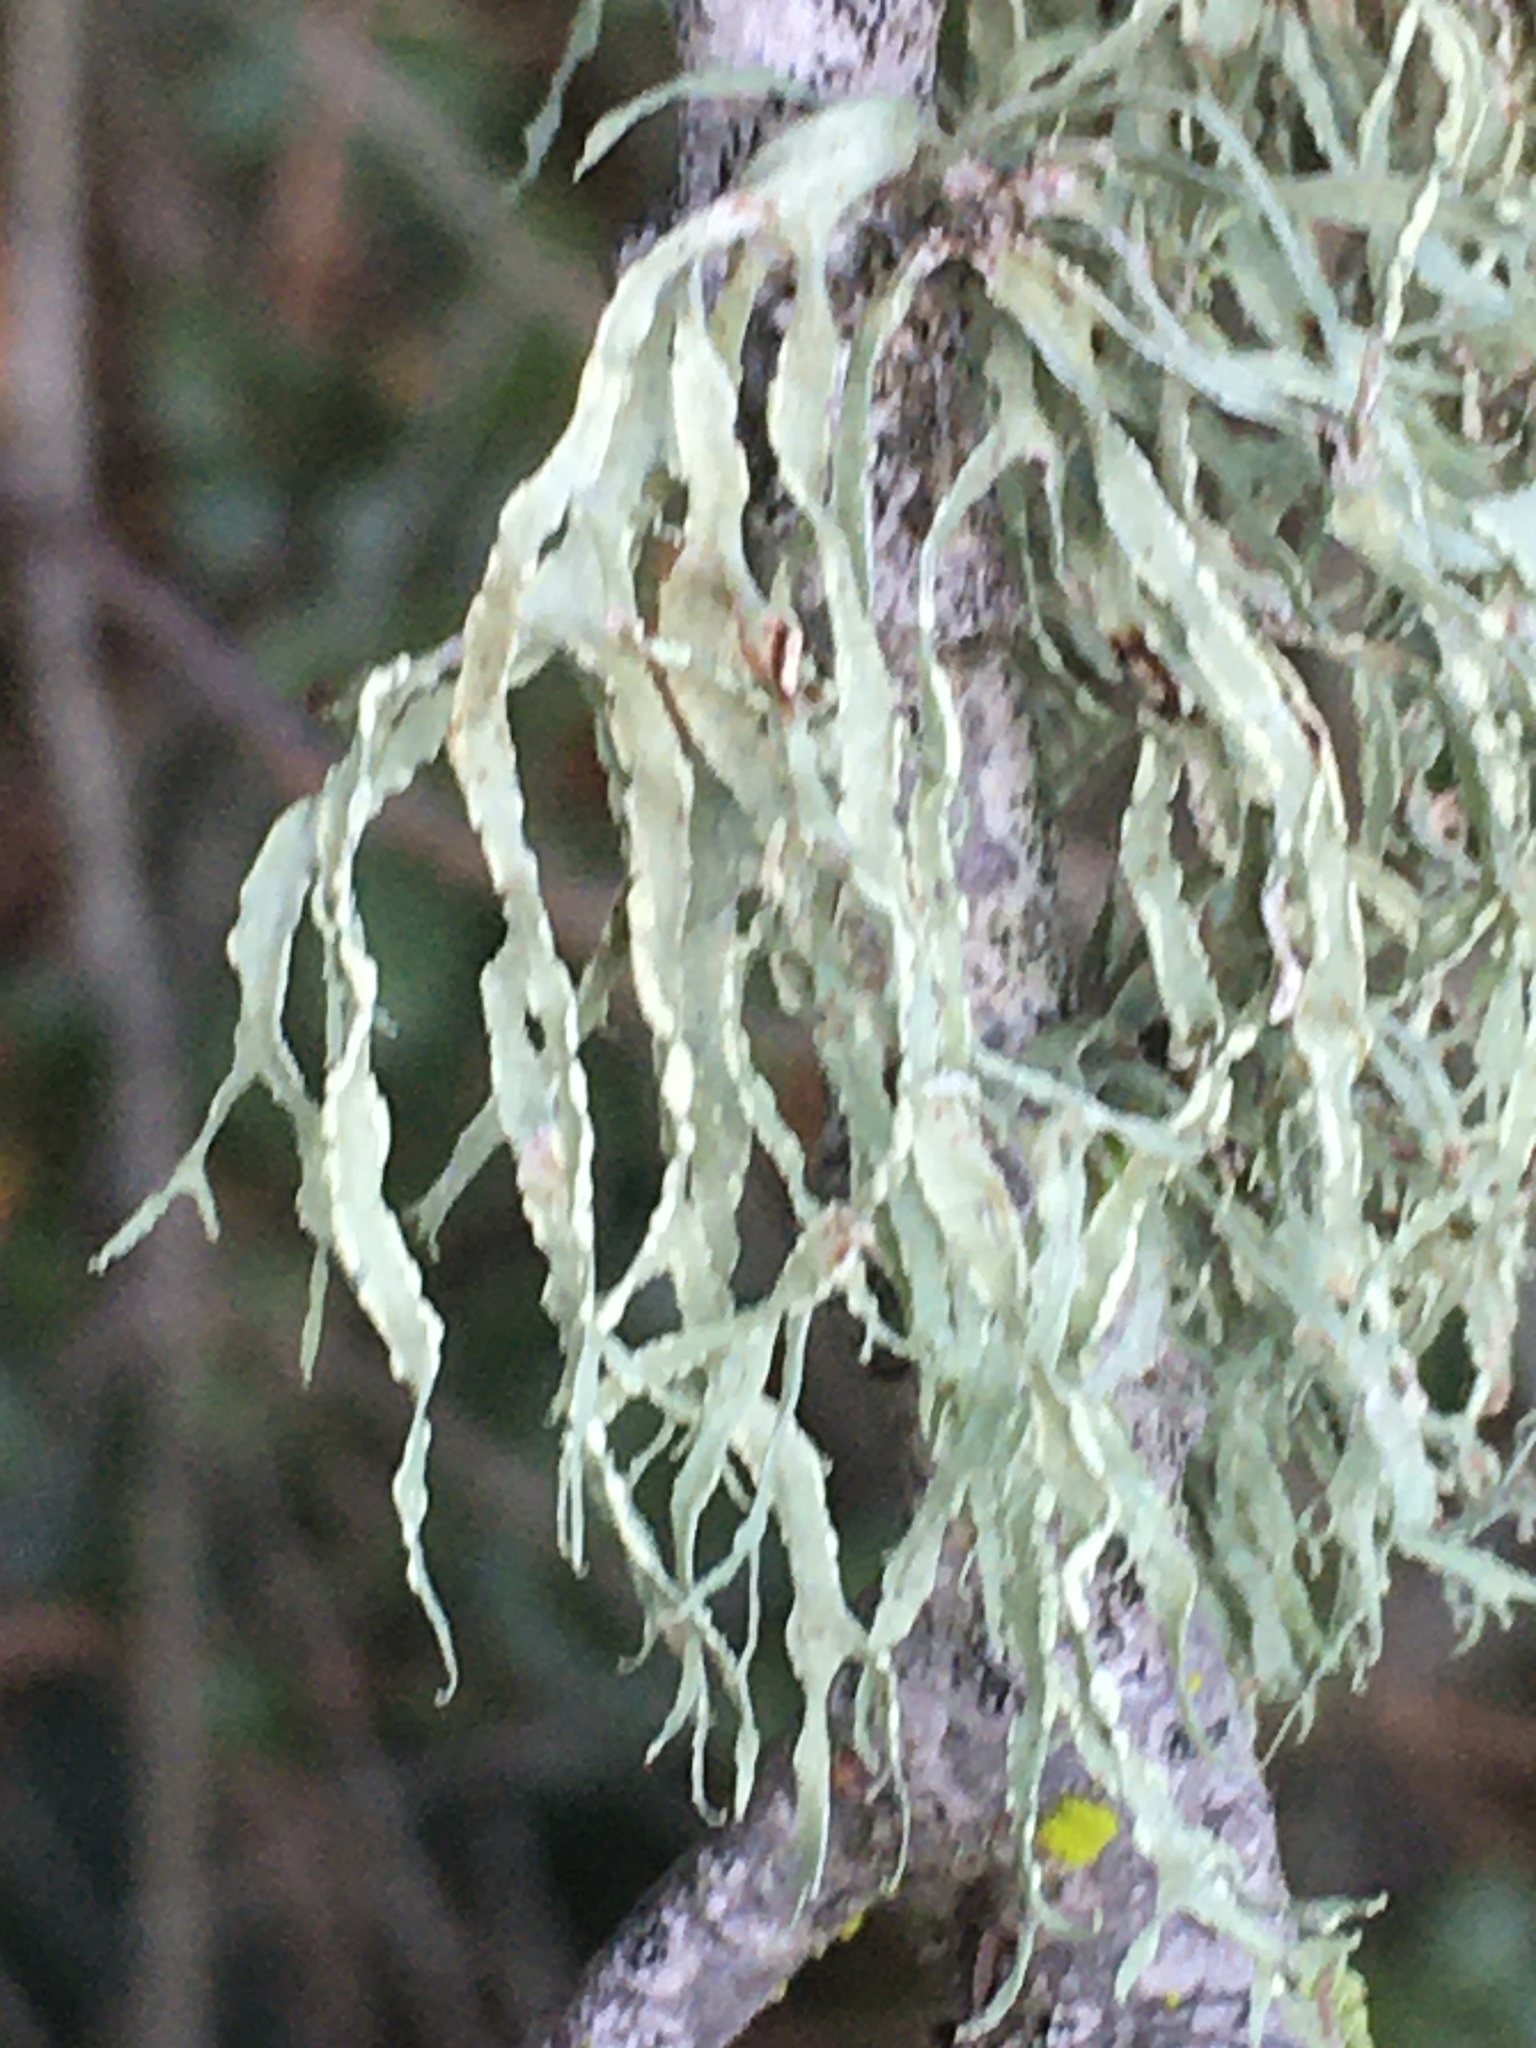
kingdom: Fungi
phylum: Ascomycota
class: Lecanoromycetes
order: Lecanorales
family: Ramalinaceae
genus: Ramalina
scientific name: Ramalina farinacea
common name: Farinose cartilage lichen
